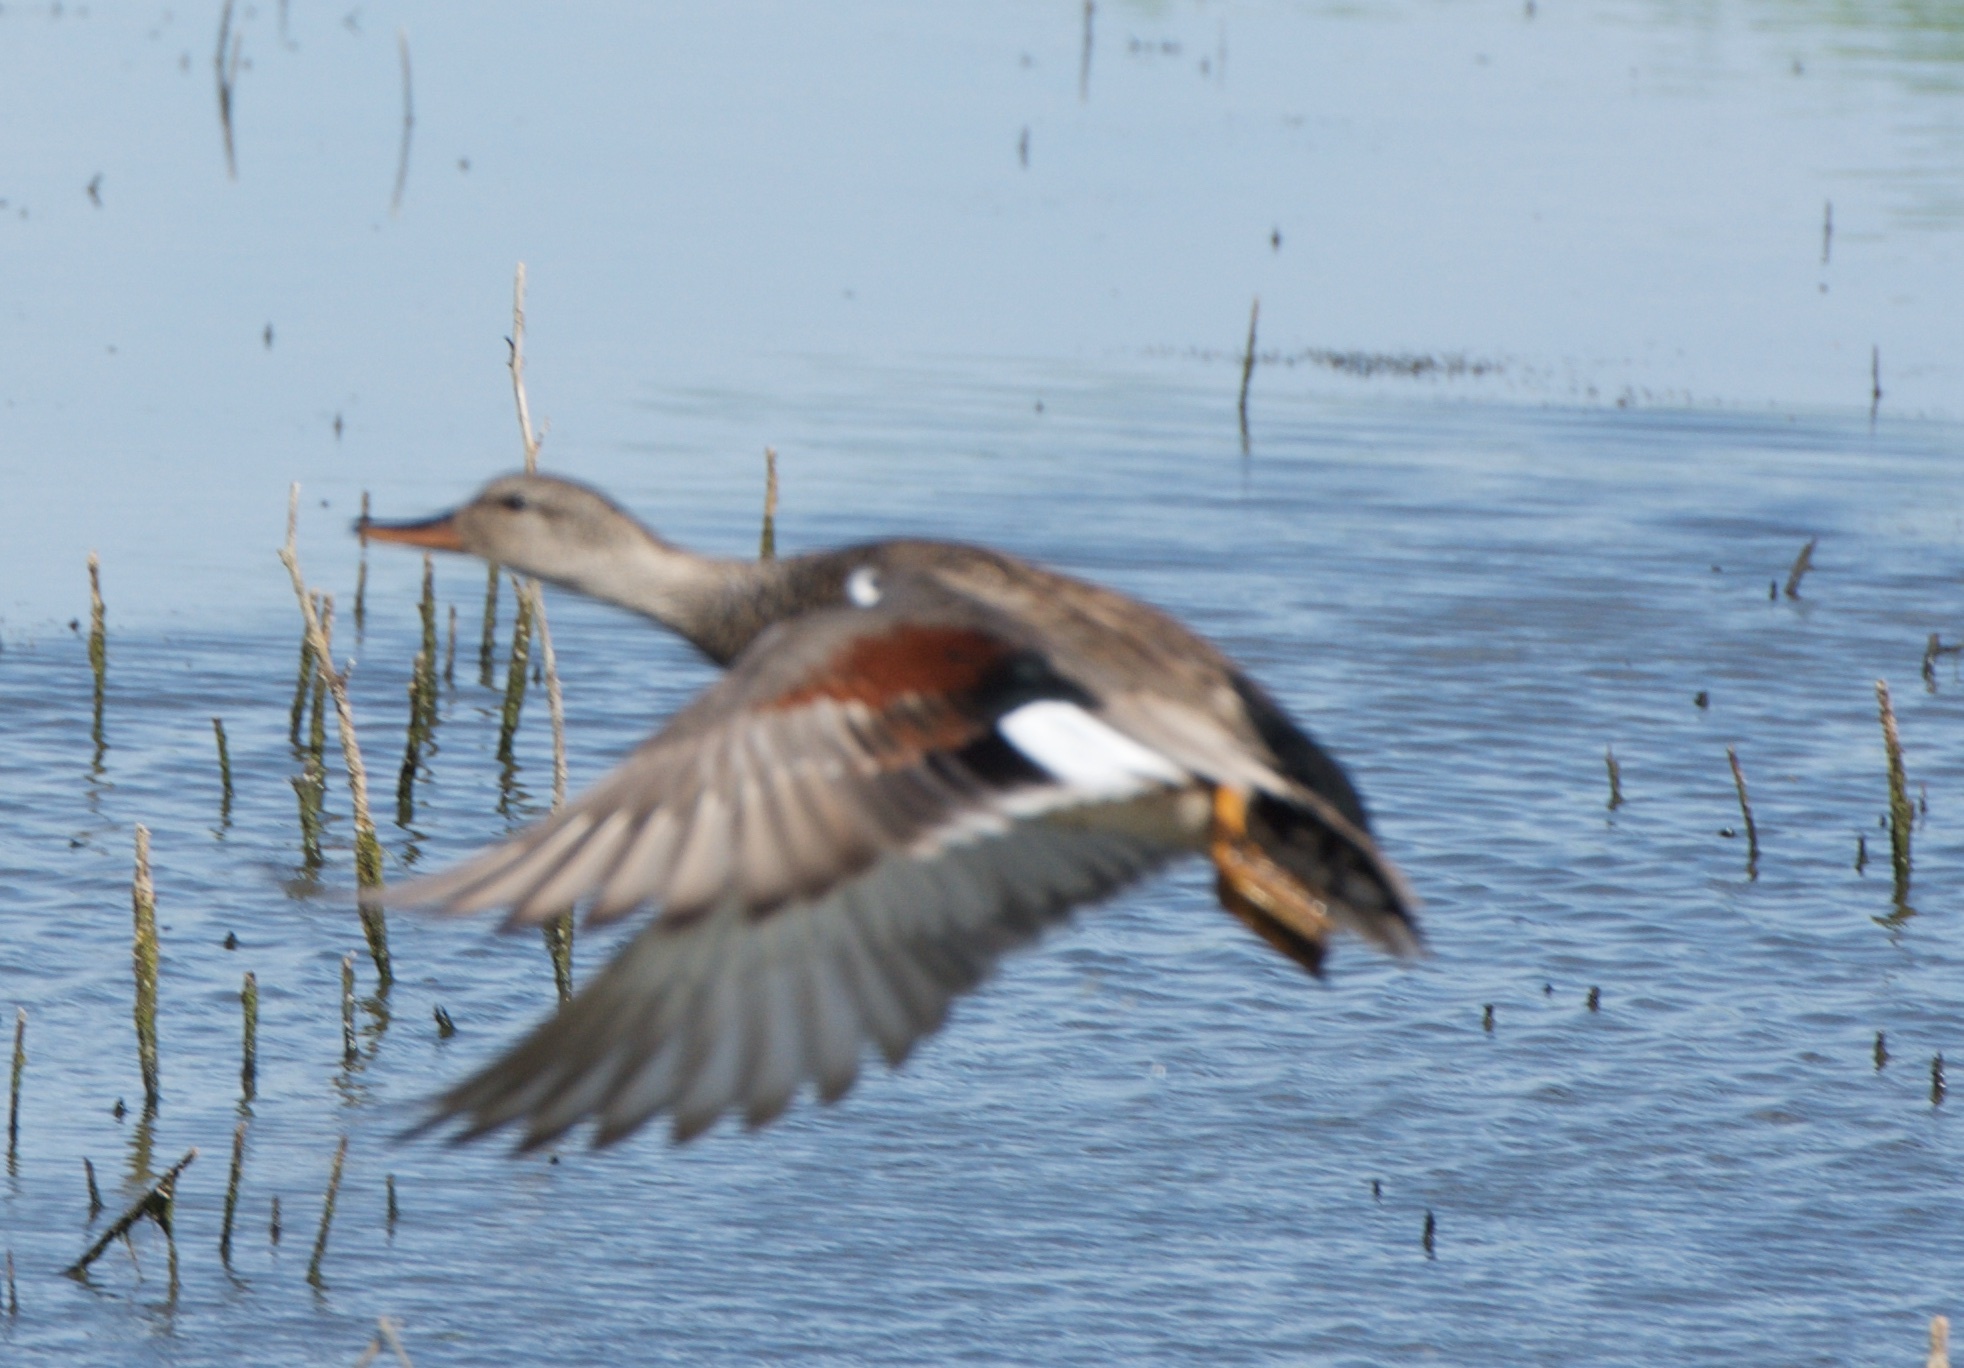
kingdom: Animalia
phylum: Chordata
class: Aves
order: Anseriformes
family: Anatidae
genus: Mareca
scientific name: Mareca strepera
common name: Gadwall
